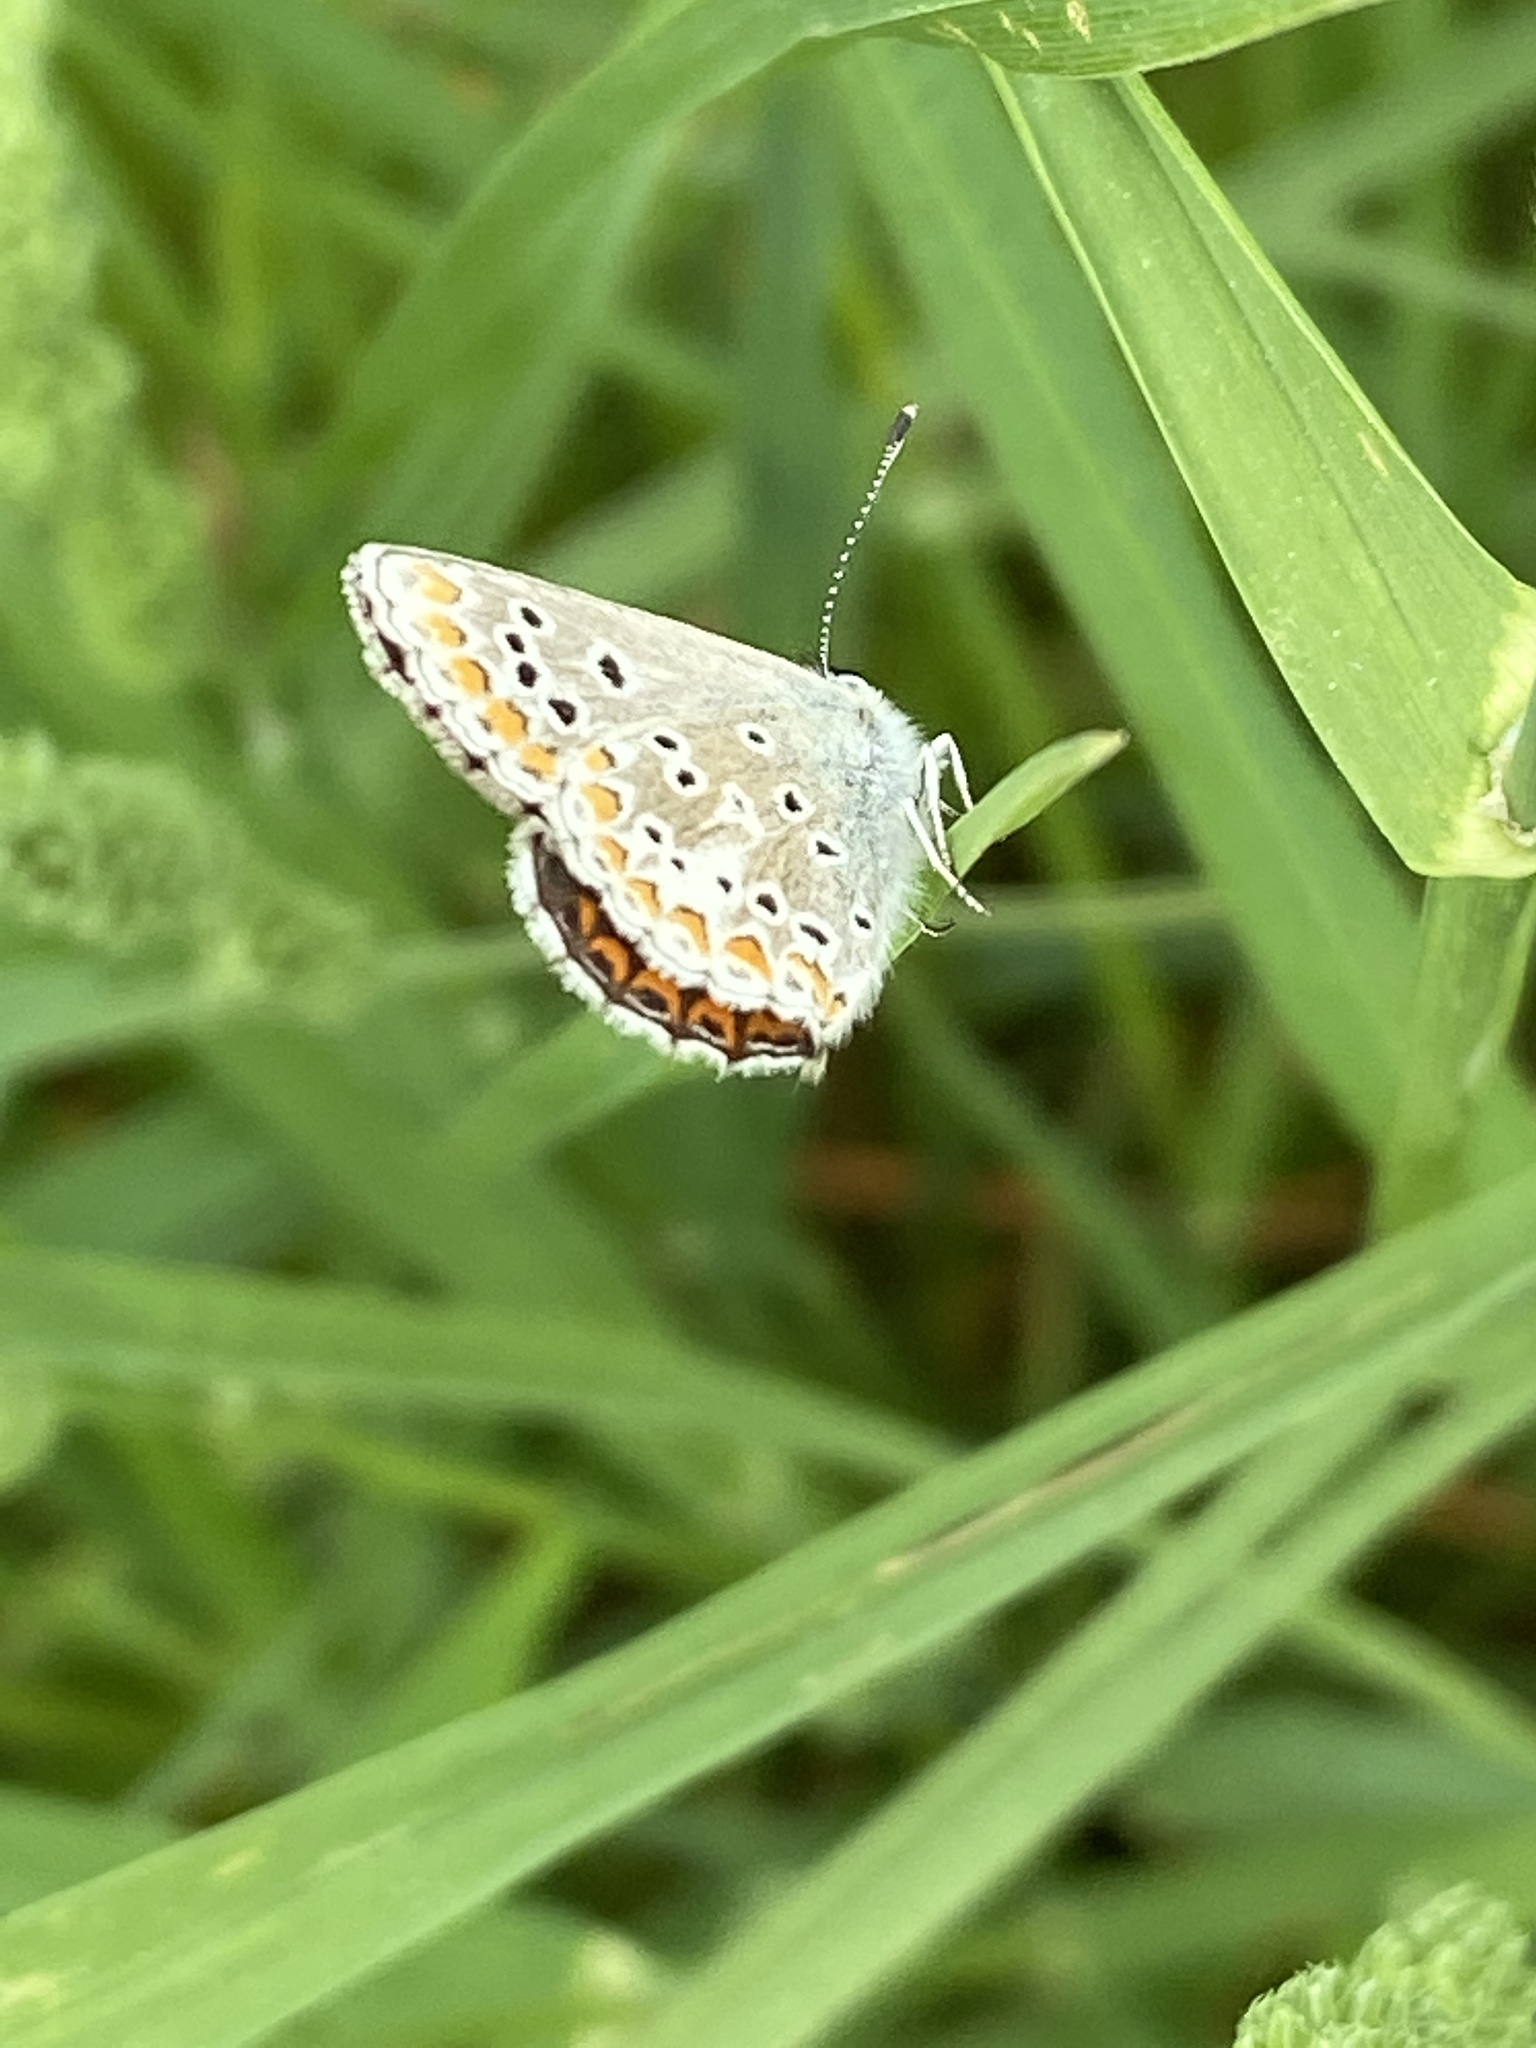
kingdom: Animalia
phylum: Arthropoda
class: Insecta
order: Lepidoptera
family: Lycaenidae
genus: Aricia
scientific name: Aricia agestis
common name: Brown argus
